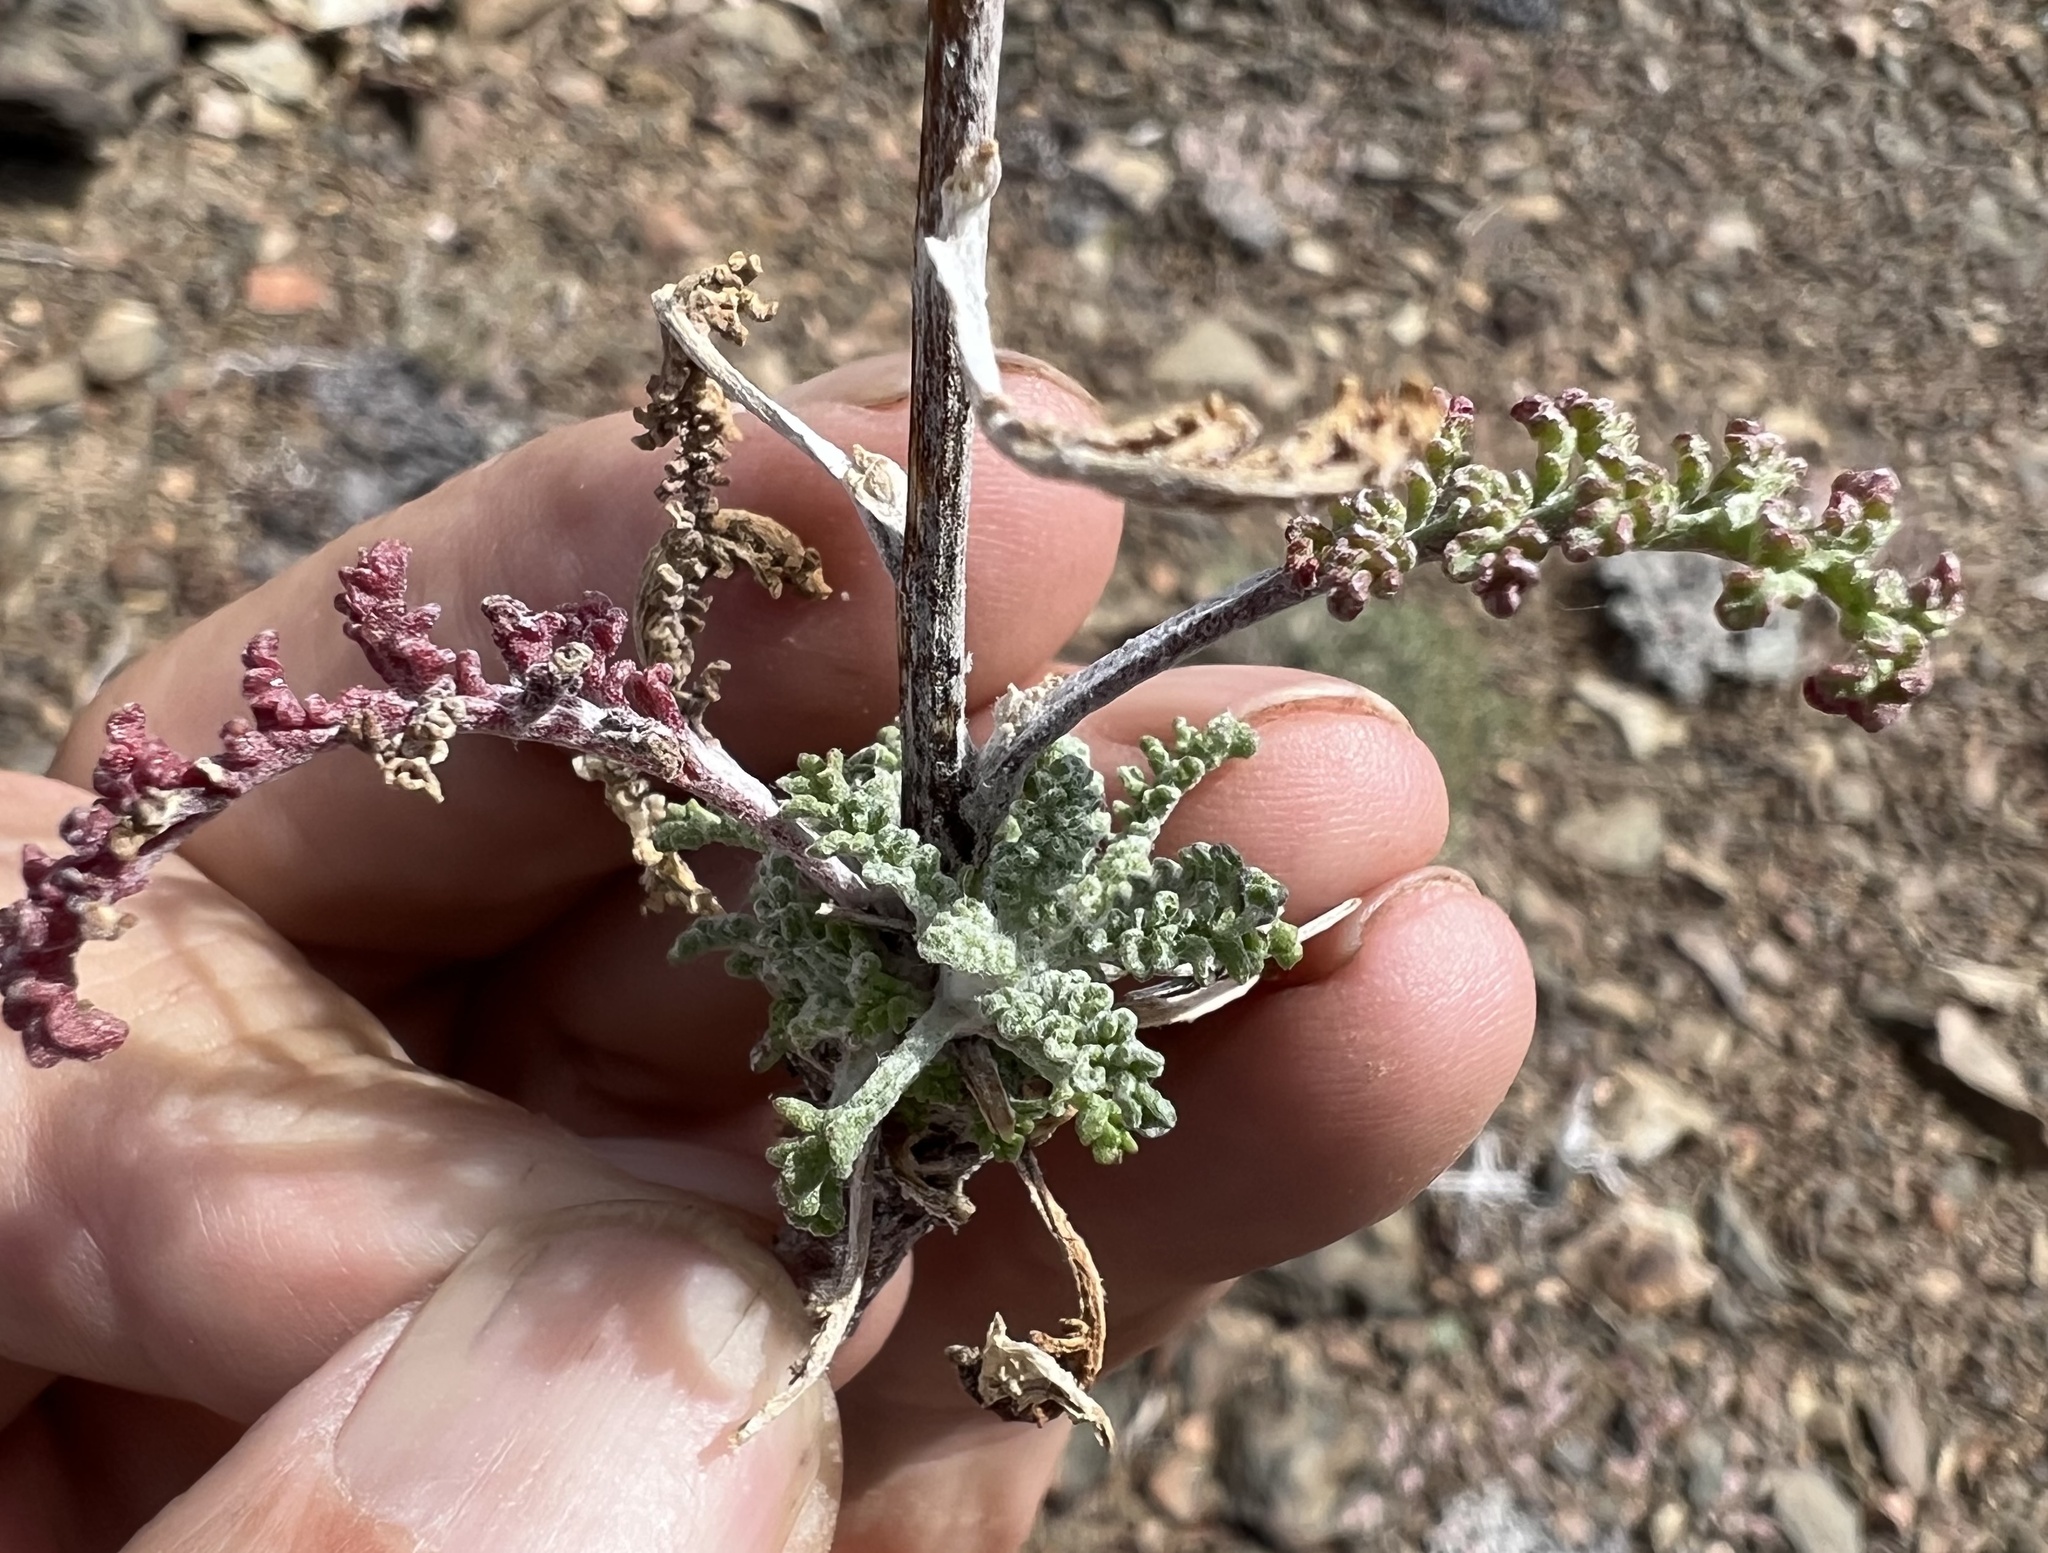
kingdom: Plantae
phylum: Tracheophyta
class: Magnoliopsida
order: Asterales
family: Asteraceae
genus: Chaenactis
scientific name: Chaenactis douglasii
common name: Hoary pincushion
